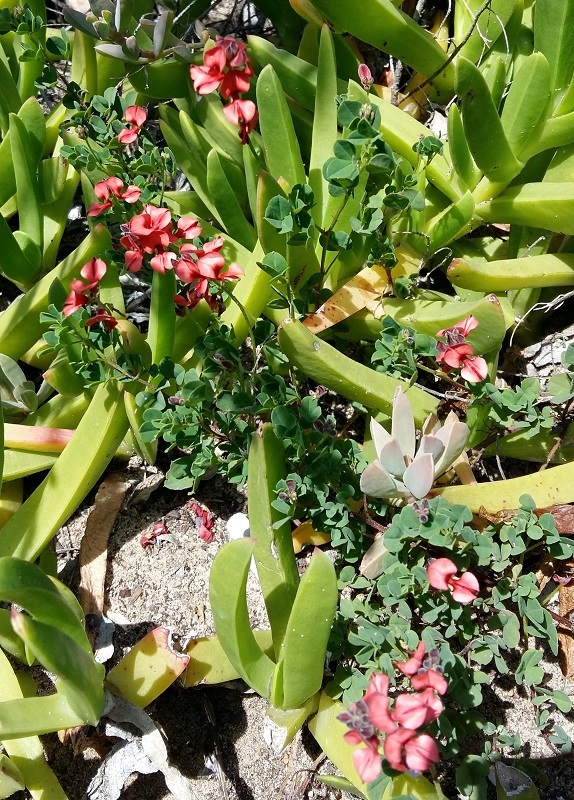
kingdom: Plantae
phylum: Tracheophyta
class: Magnoliopsida
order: Fabales
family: Fabaceae
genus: Indigofera
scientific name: Indigofera erecta
